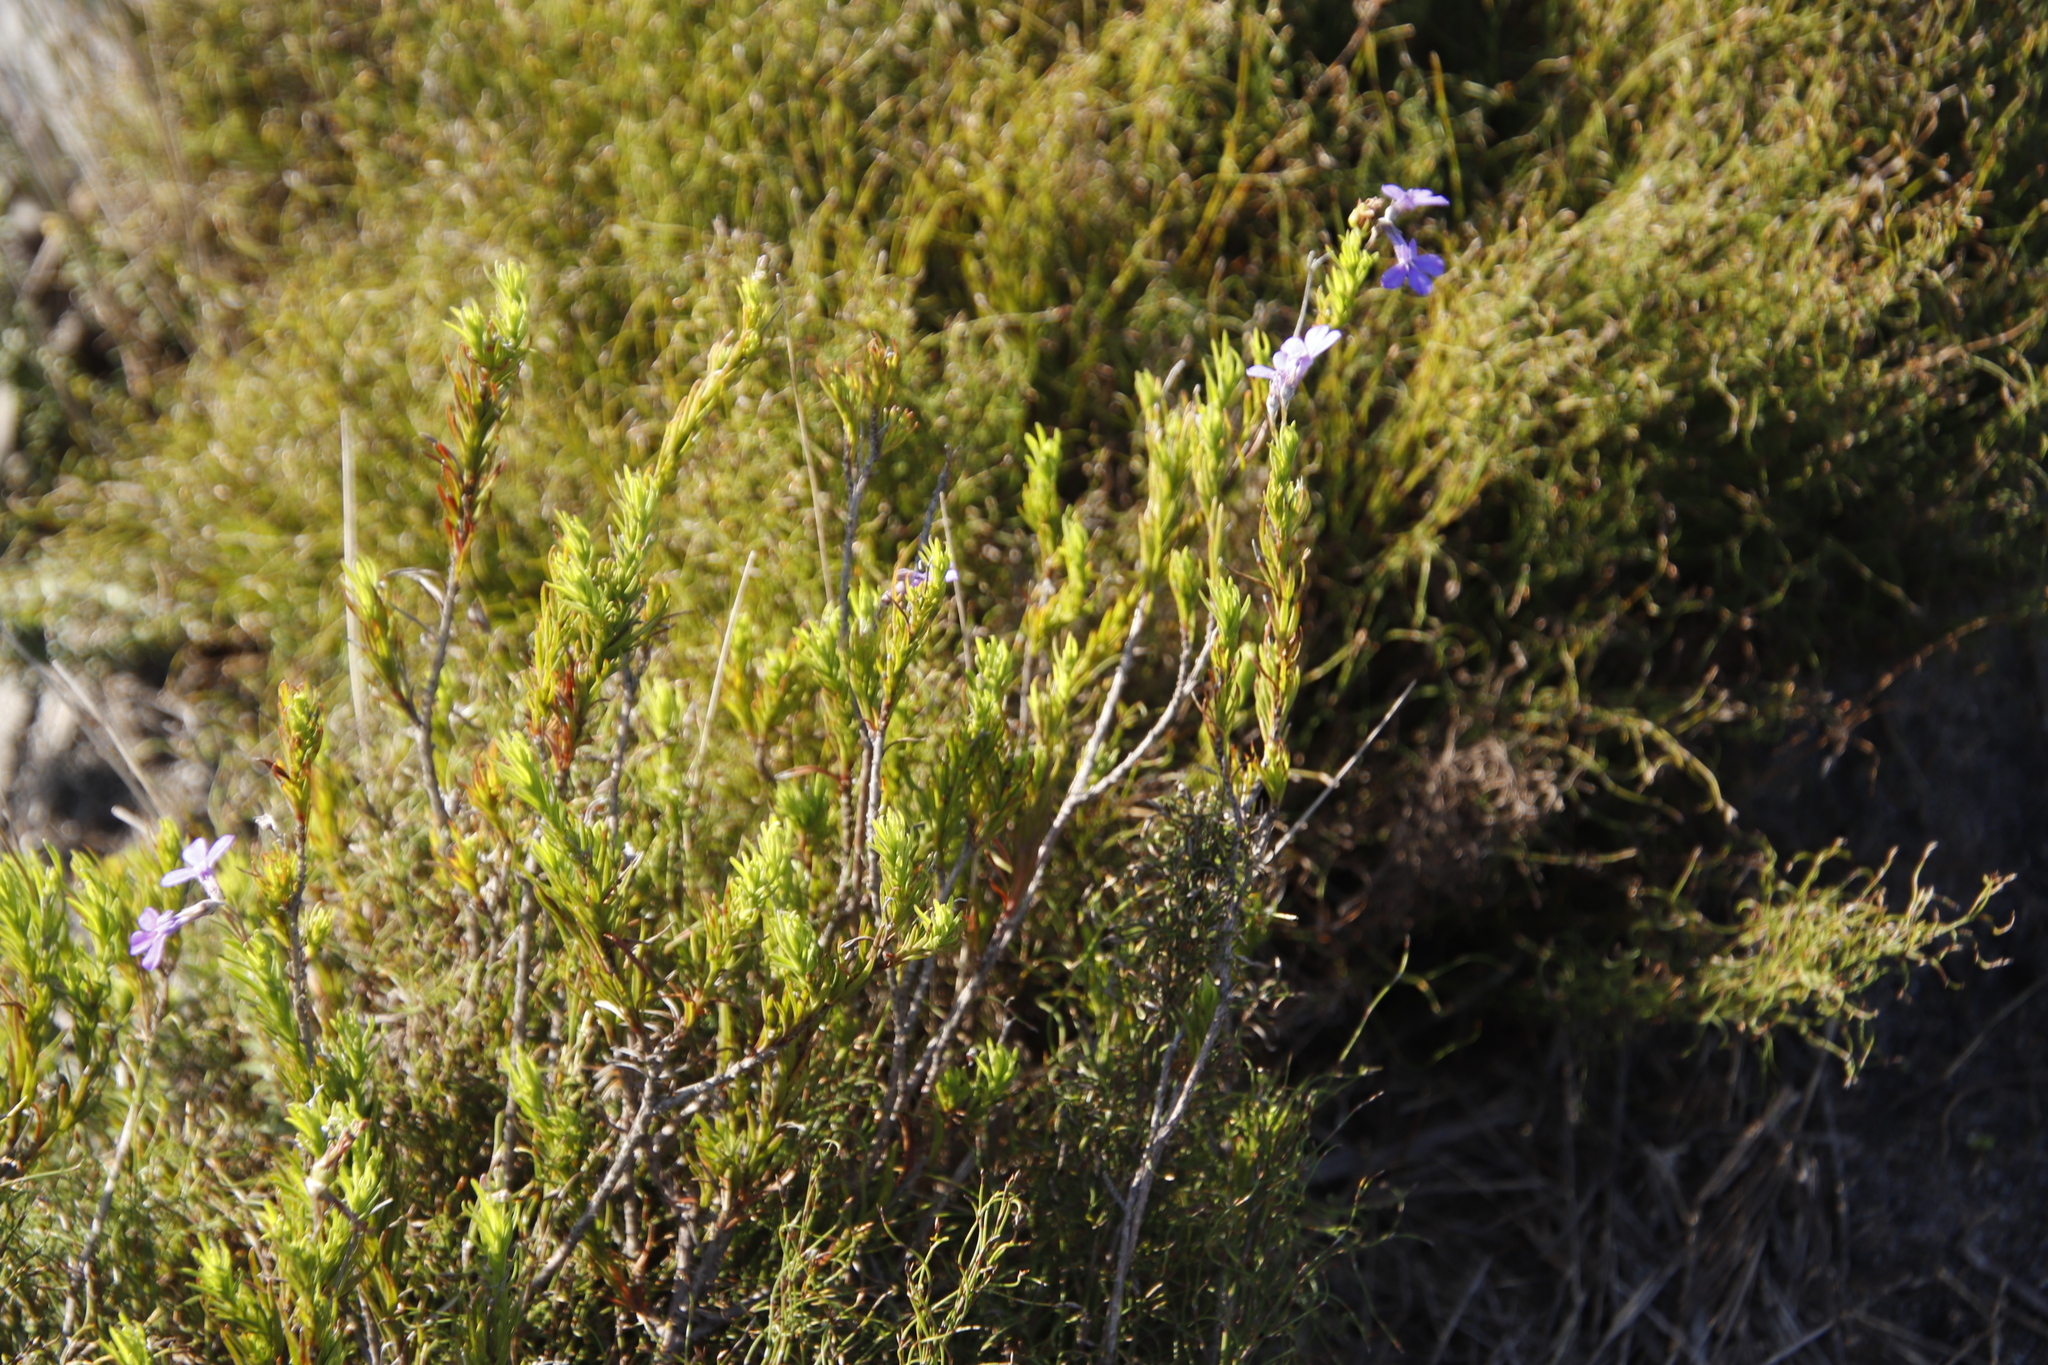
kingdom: Plantae
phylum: Tracheophyta
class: Magnoliopsida
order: Asterales
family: Campanulaceae
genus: Lobelia
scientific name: Lobelia pinifolia
